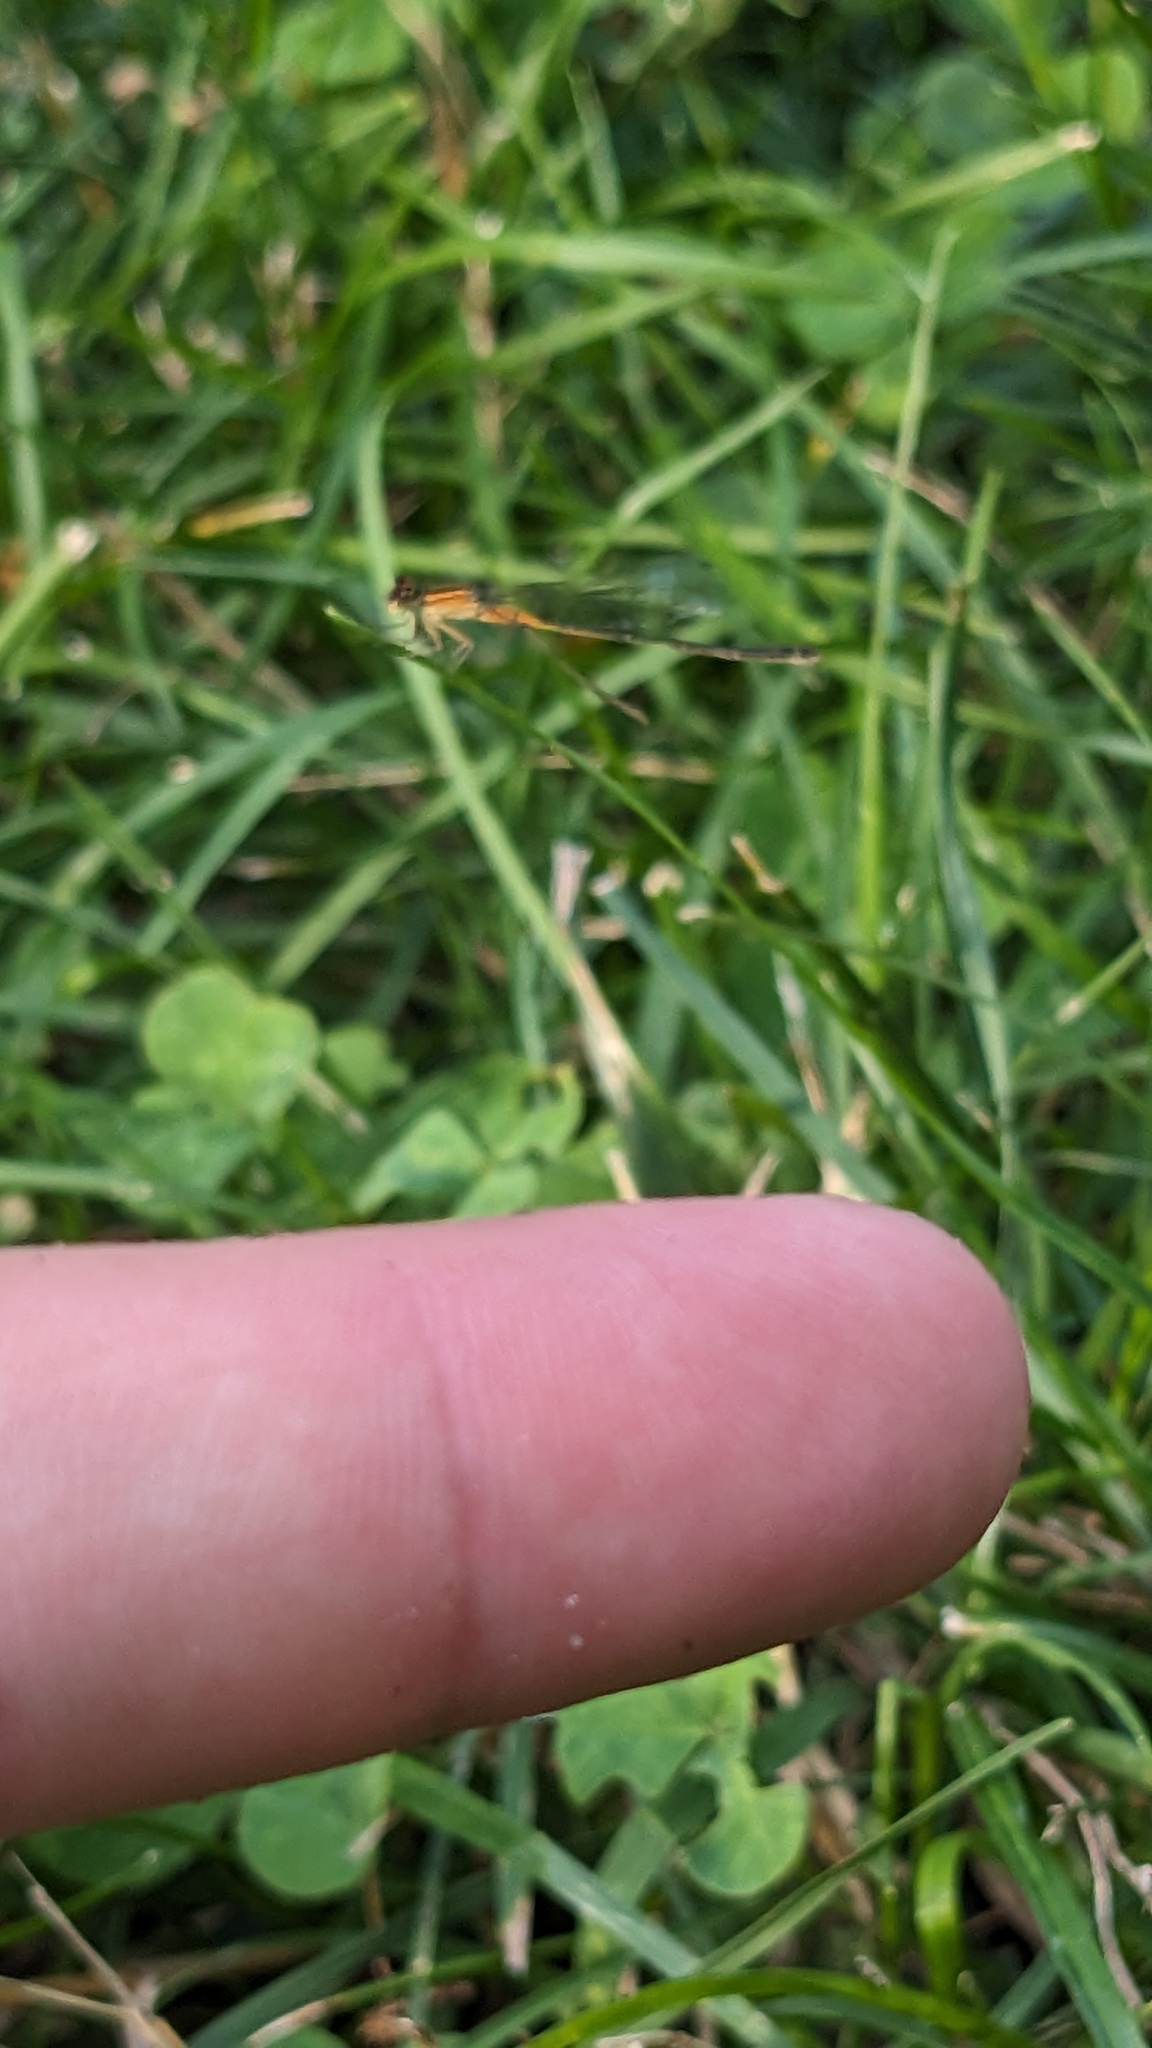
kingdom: Animalia
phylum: Arthropoda
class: Insecta
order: Odonata
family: Coenagrionidae
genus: Ischnura
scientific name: Ischnura verticalis
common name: Eastern forktail
